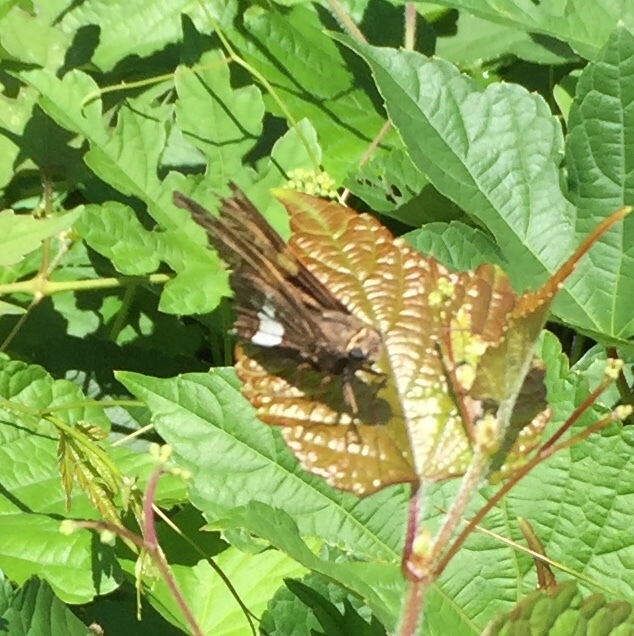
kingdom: Animalia
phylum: Arthropoda
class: Insecta
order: Lepidoptera
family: Hesperiidae
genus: Epargyreus
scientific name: Epargyreus clarus
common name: Silver-spotted skipper
